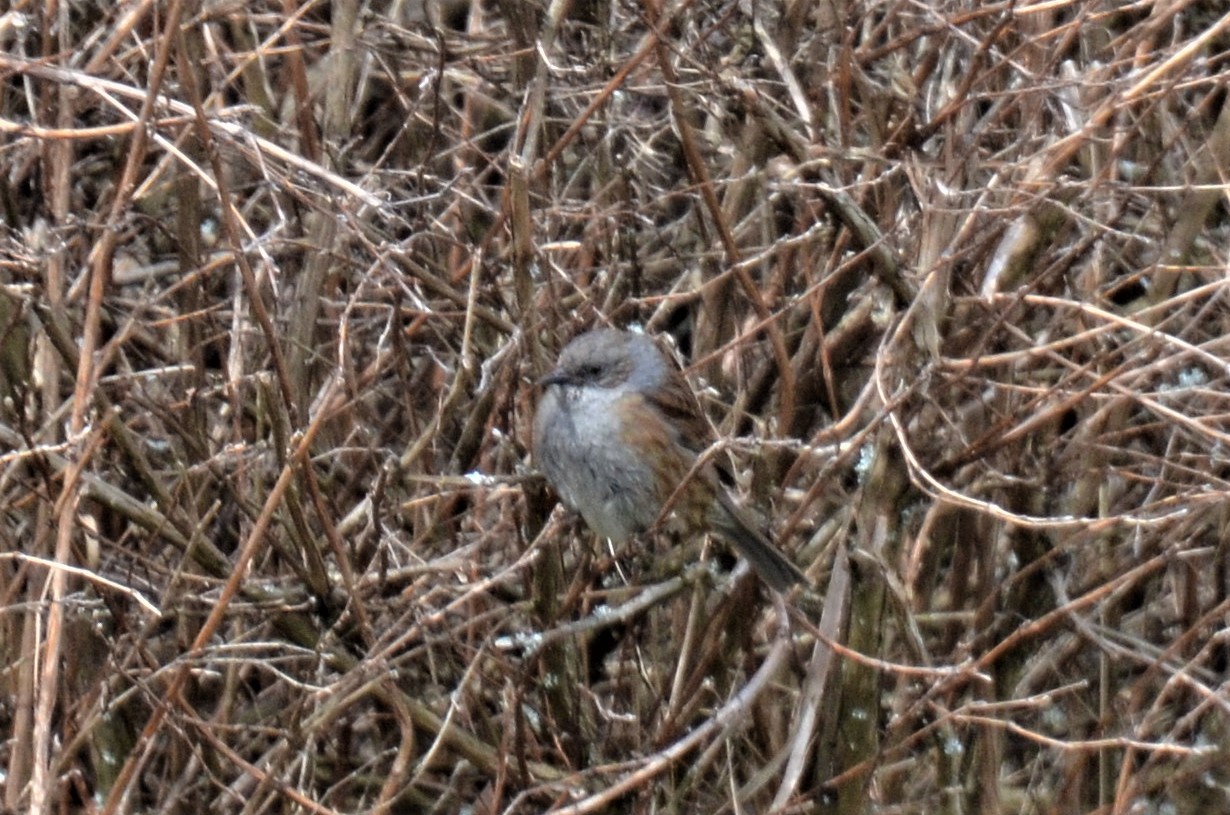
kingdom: Animalia
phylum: Chordata
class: Aves
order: Passeriformes
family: Prunellidae
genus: Prunella
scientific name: Prunella modularis
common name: Dunnock
